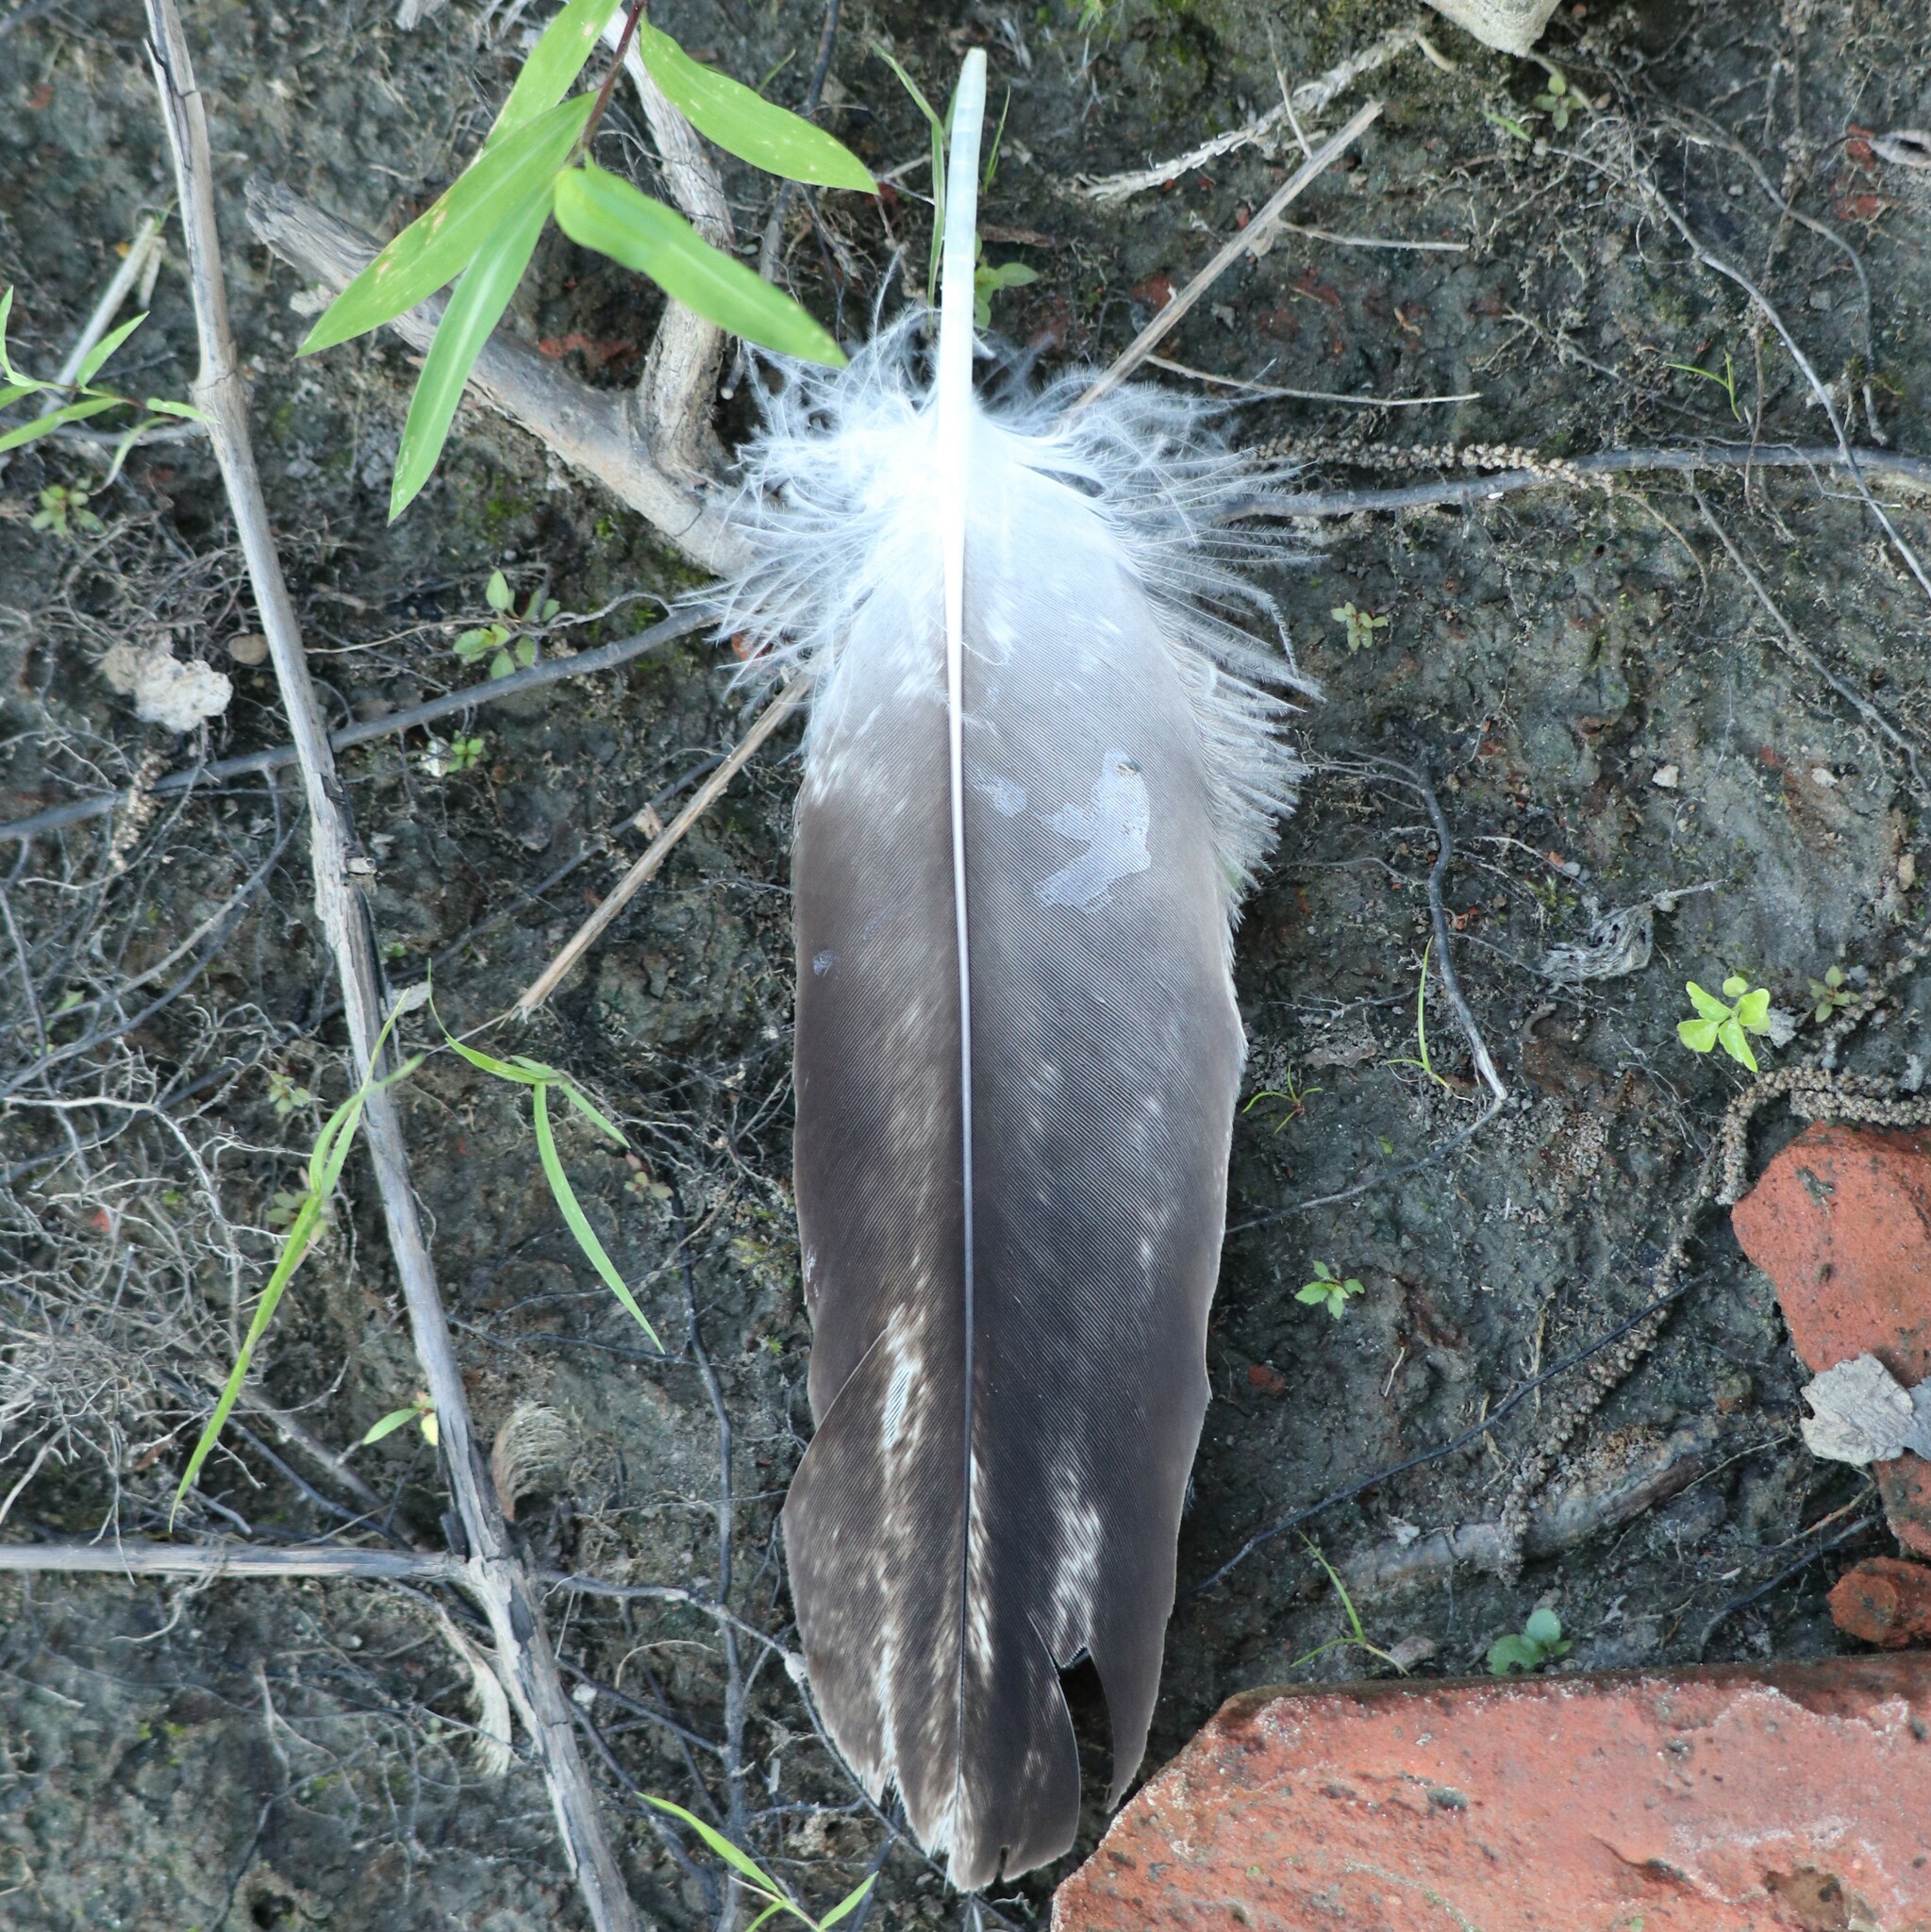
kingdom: Animalia
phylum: Chordata
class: Aves
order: Accipitriformes
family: Accipitridae
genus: Haliaeetus
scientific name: Haliaeetus leucocephalus
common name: Bald eagle
